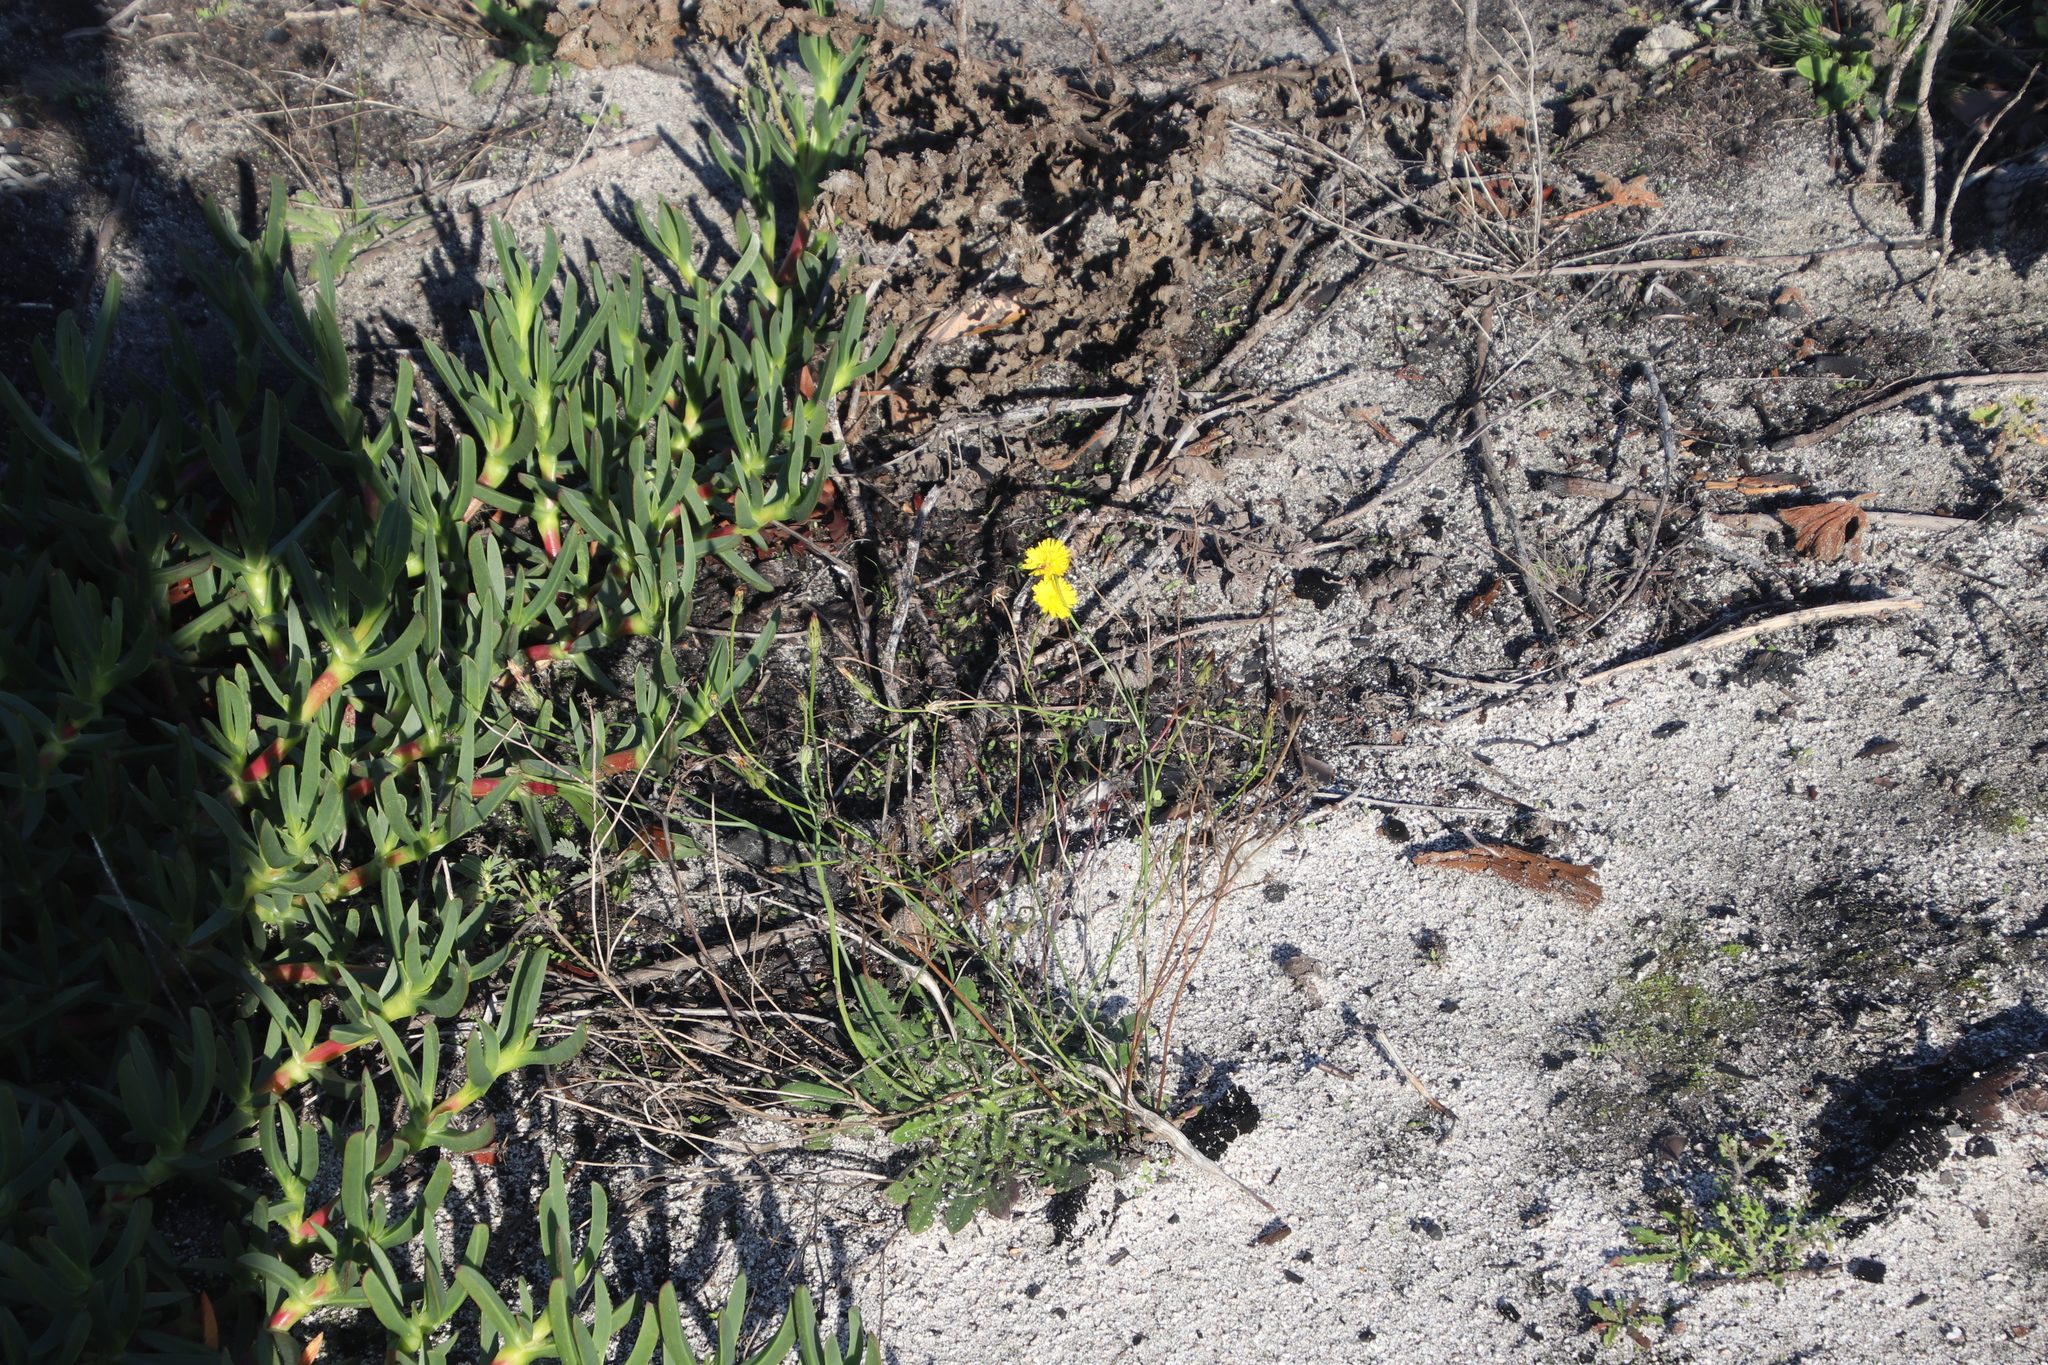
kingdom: Plantae
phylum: Tracheophyta
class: Magnoliopsida
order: Asterales
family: Asteraceae
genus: Hypochaeris
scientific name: Hypochaeris radicata
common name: Flatweed
